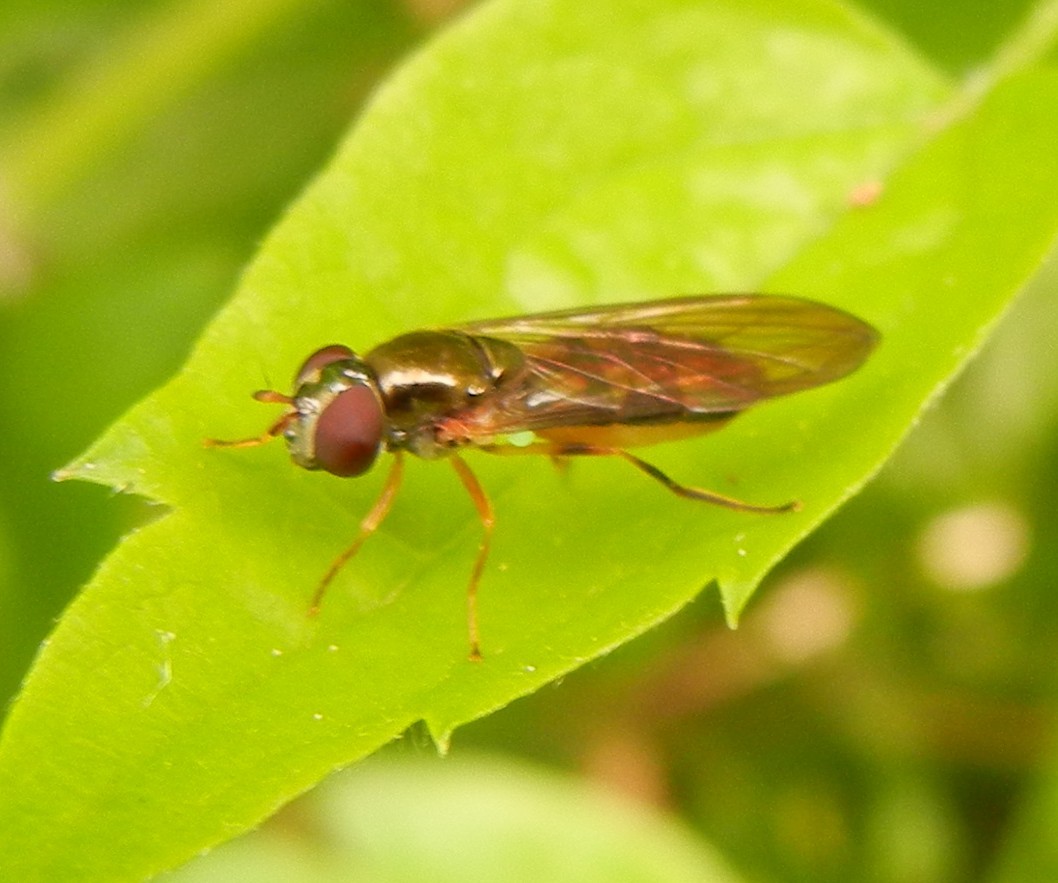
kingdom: Animalia
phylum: Arthropoda
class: Insecta
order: Diptera
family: Syrphidae
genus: Melanostoma
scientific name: Melanostoma scalare
